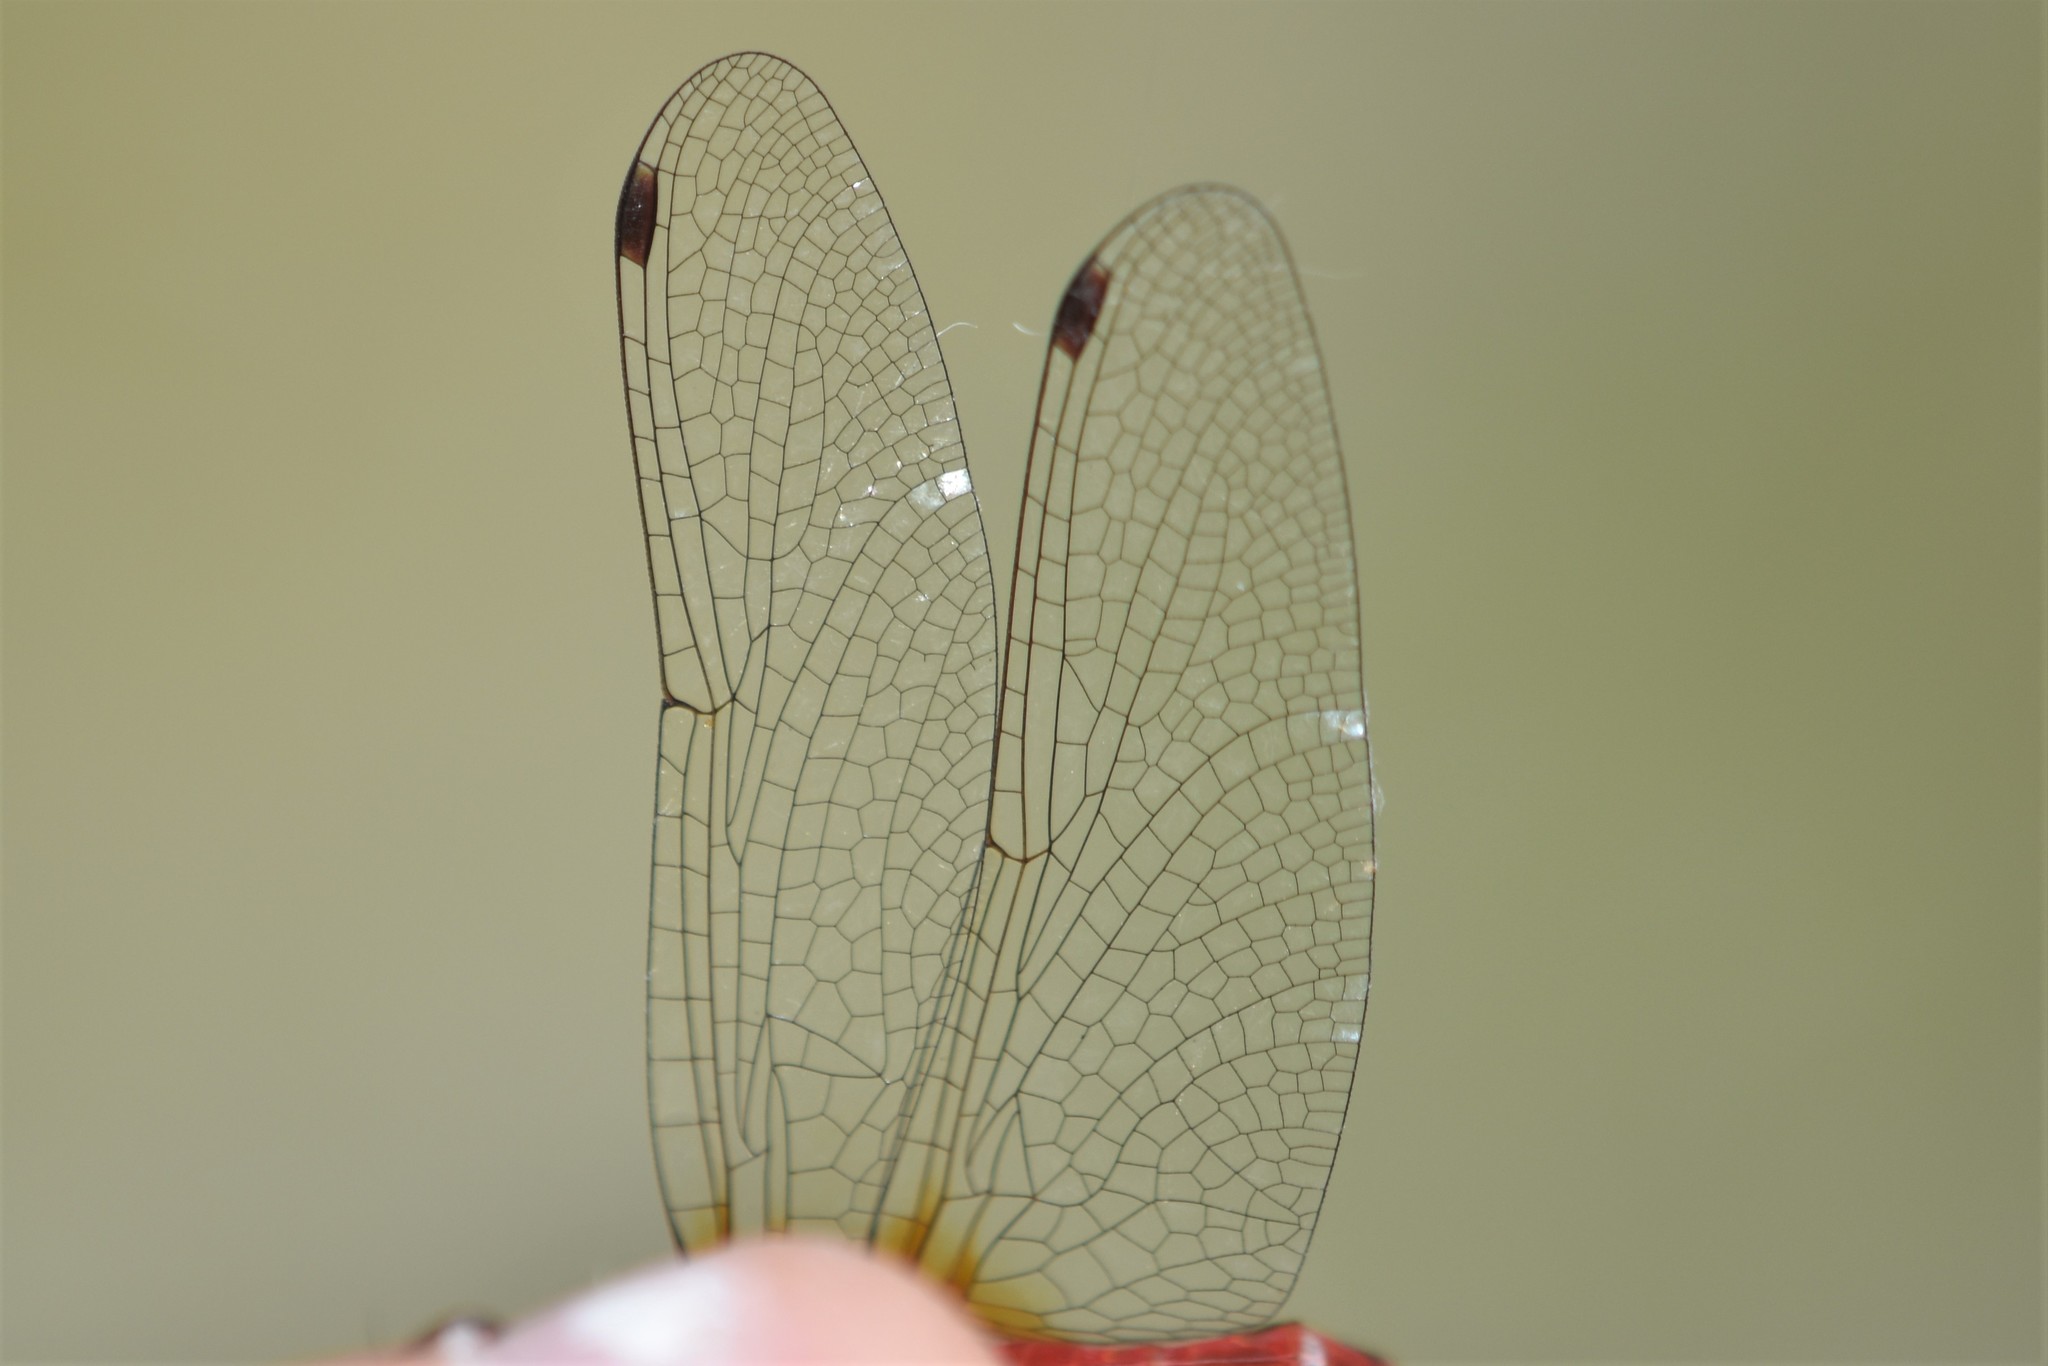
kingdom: Animalia
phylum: Arthropoda
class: Insecta
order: Odonata
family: Libellulidae
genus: Sympetrum
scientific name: Sympetrum pallipes
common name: Striped meadowhawk
